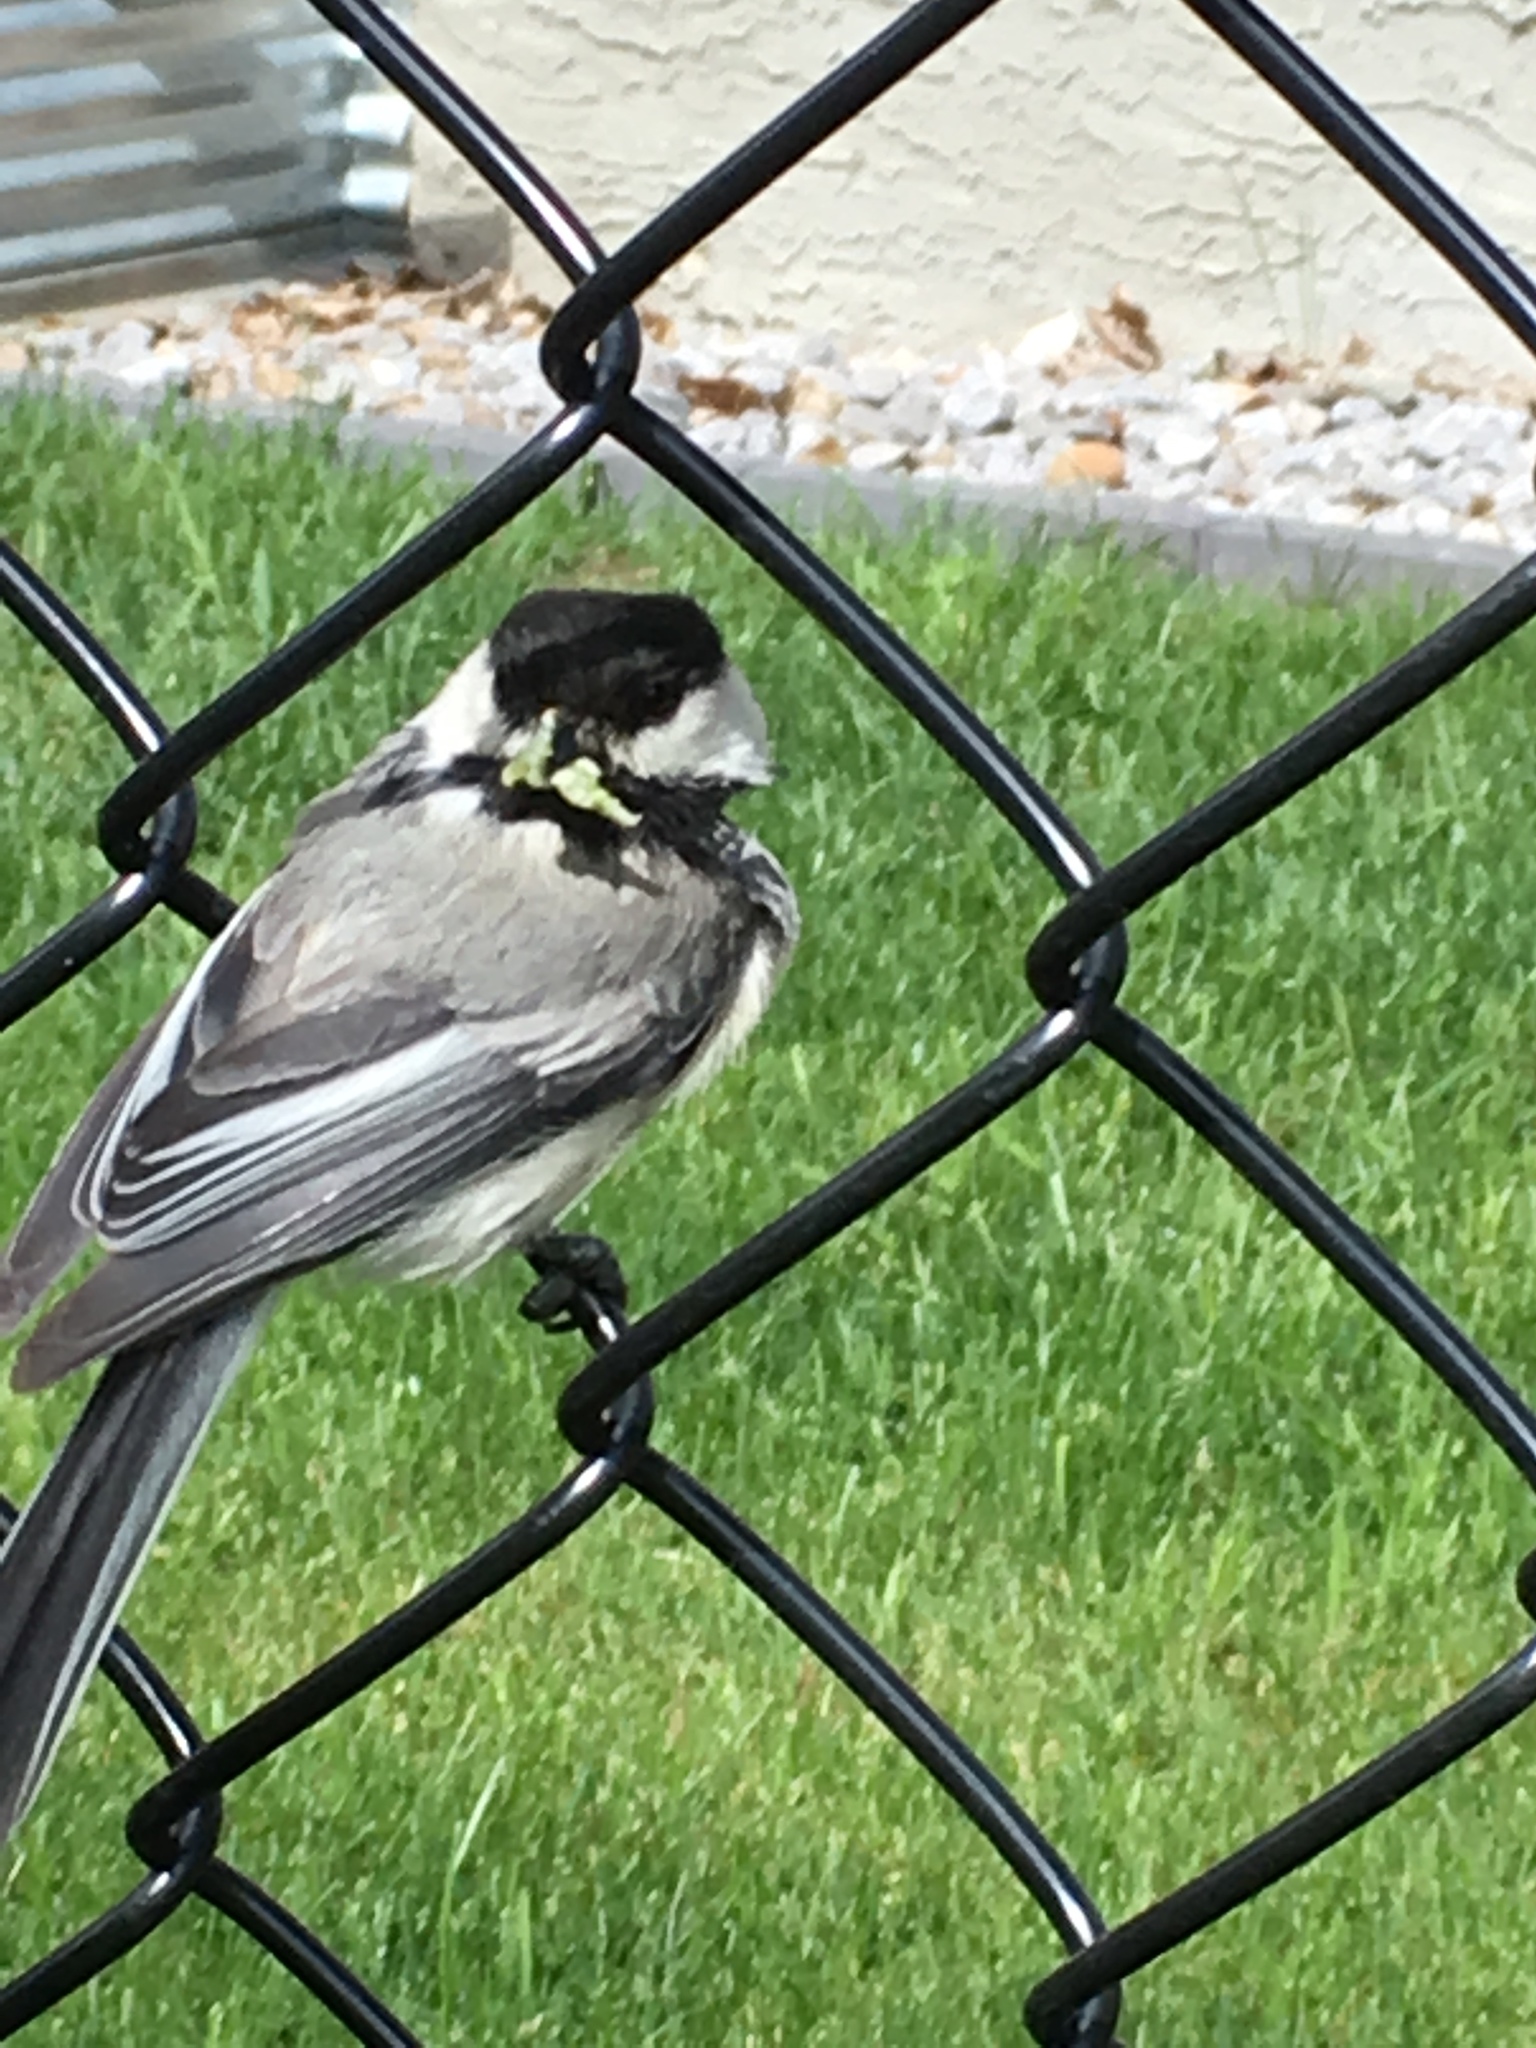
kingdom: Animalia
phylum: Chordata
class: Aves
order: Passeriformes
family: Paridae
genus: Poecile
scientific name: Poecile atricapillus
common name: Black-capped chickadee
